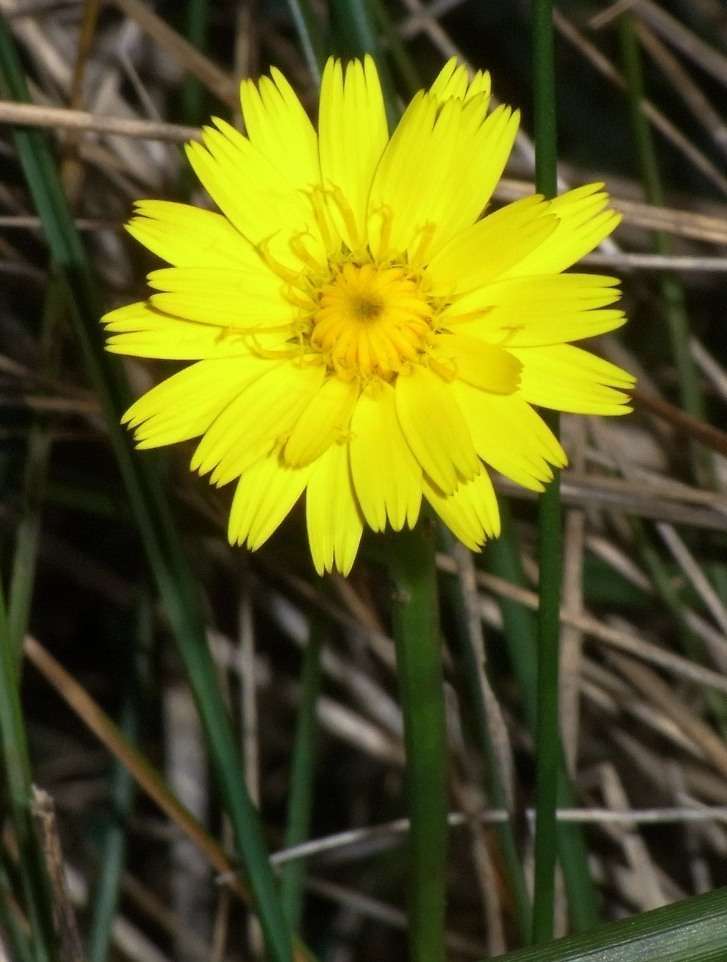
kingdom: Plantae
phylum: Tracheophyta
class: Magnoliopsida
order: Asterales
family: Asteraceae
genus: Hypochaeris
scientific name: Hypochaeris radicata
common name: Flatweed
